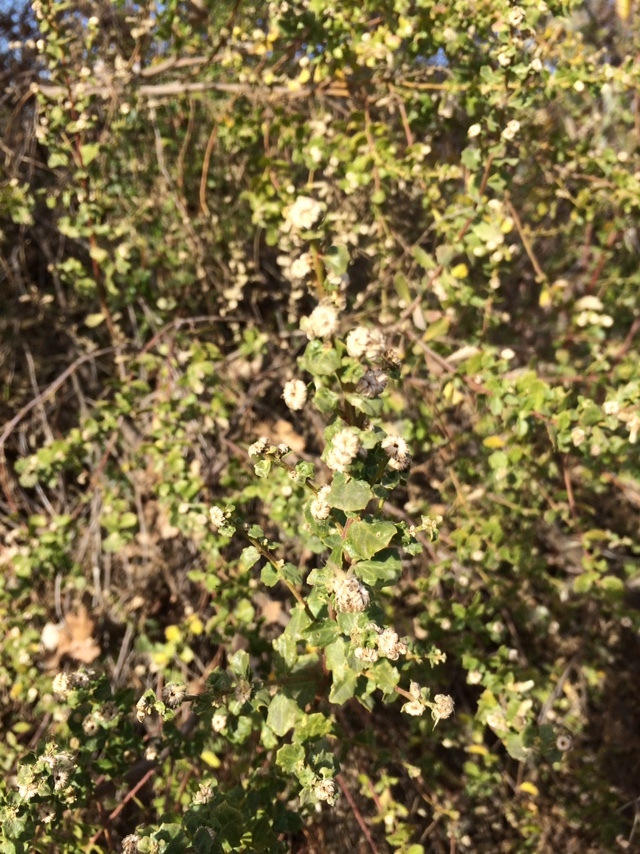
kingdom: Plantae
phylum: Tracheophyta
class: Magnoliopsida
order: Asterales
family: Asteraceae
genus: Baccharis
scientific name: Baccharis pilularis
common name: Coyotebrush
